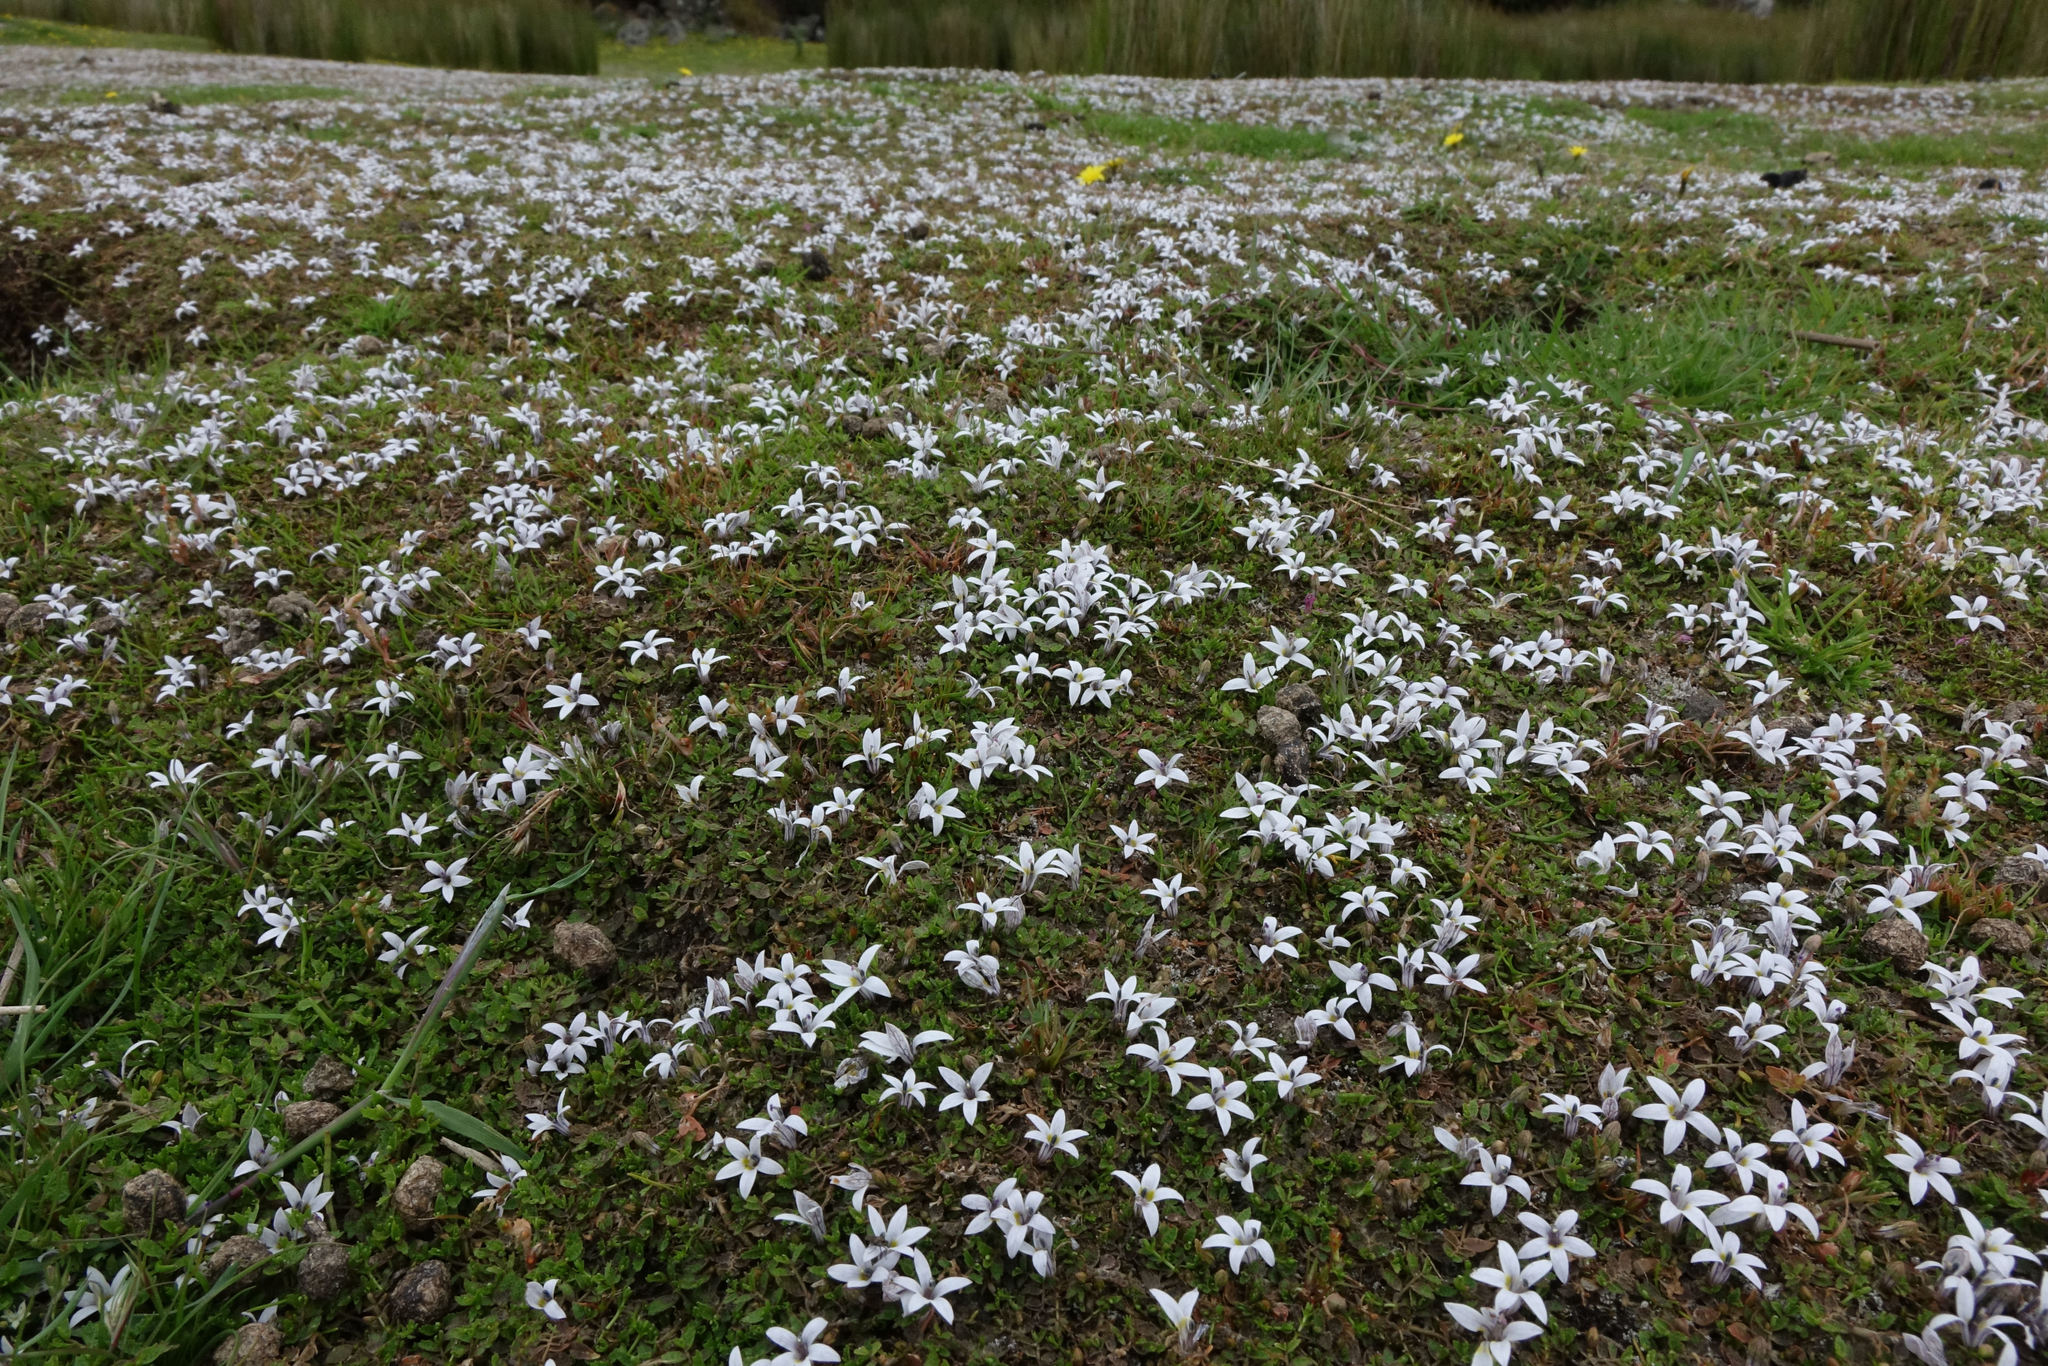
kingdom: Plantae
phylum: Tracheophyta
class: Magnoliopsida
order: Asterales
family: Campanulaceae
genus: Lobelia
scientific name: Lobelia perpusilla
